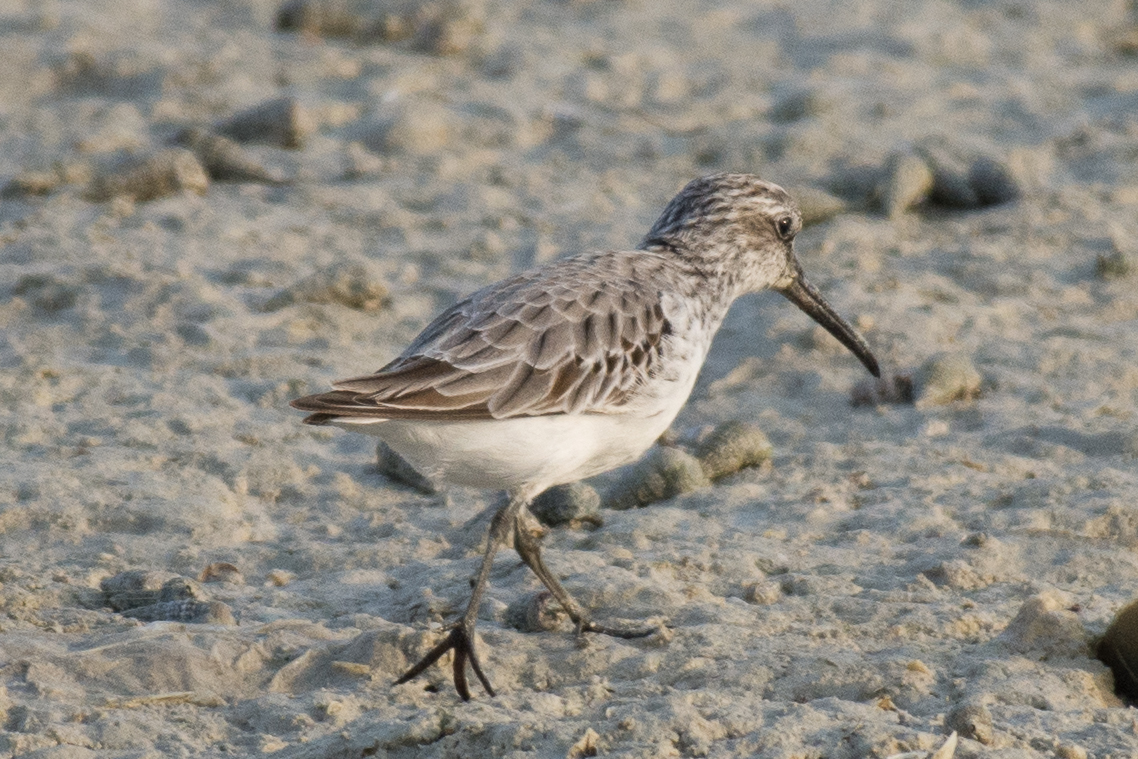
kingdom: Animalia
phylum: Chordata
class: Aves
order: Charadriiformes
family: Scolopacidae
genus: Calidris
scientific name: Calidris falcinellus
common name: Broad-billed sandpiper
